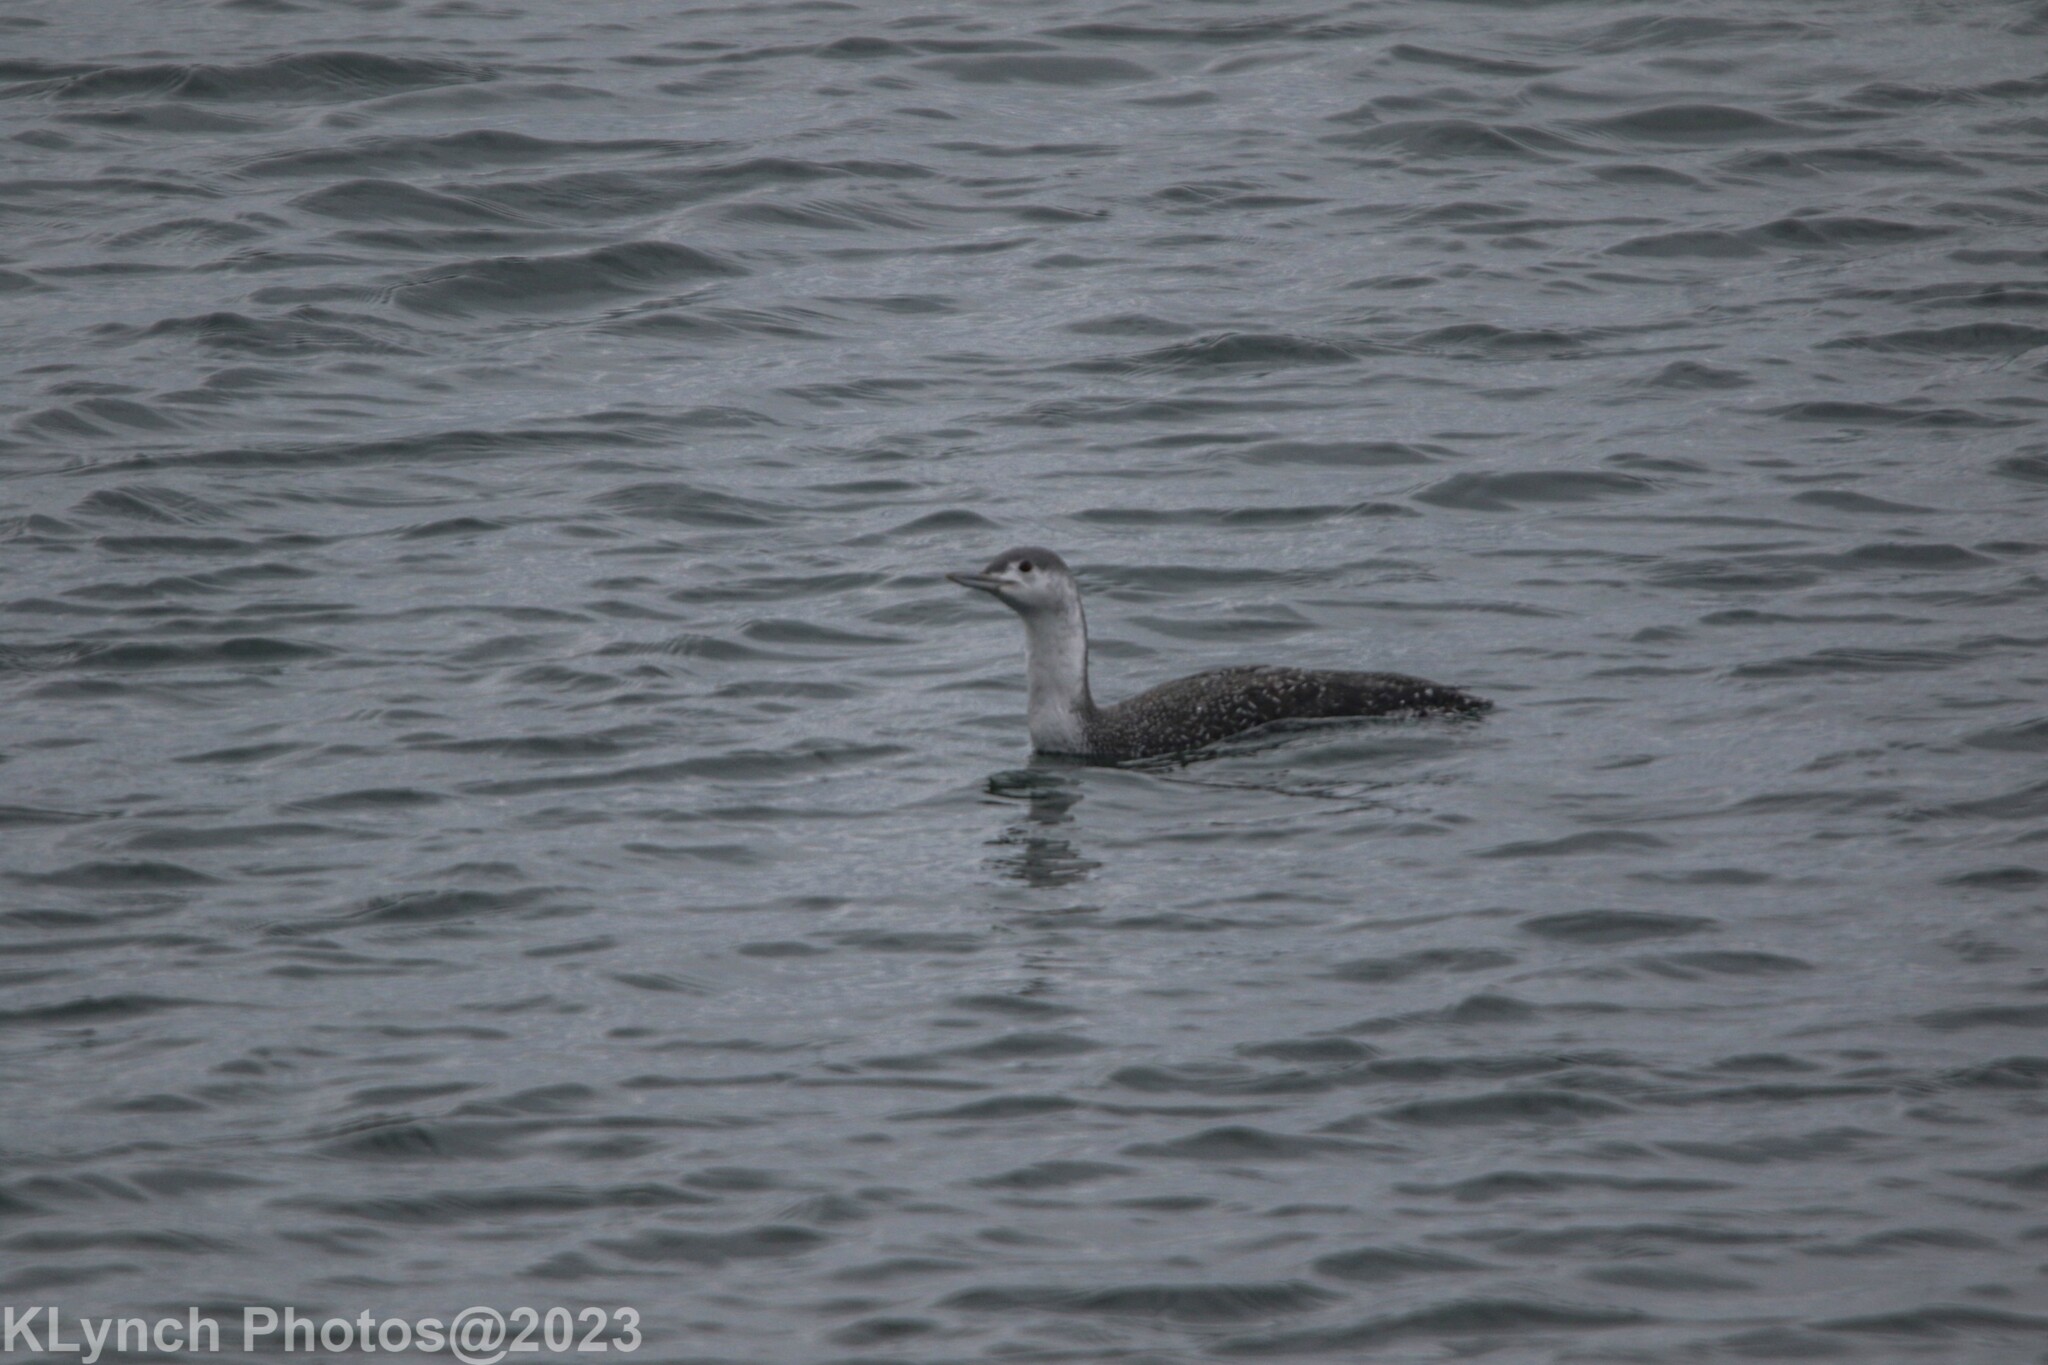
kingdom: Animalia
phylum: Chordata
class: Aves
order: Gaviiformes
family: Gaviidae
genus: Gavia
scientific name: Gavia stellata
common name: Red-throated loon
